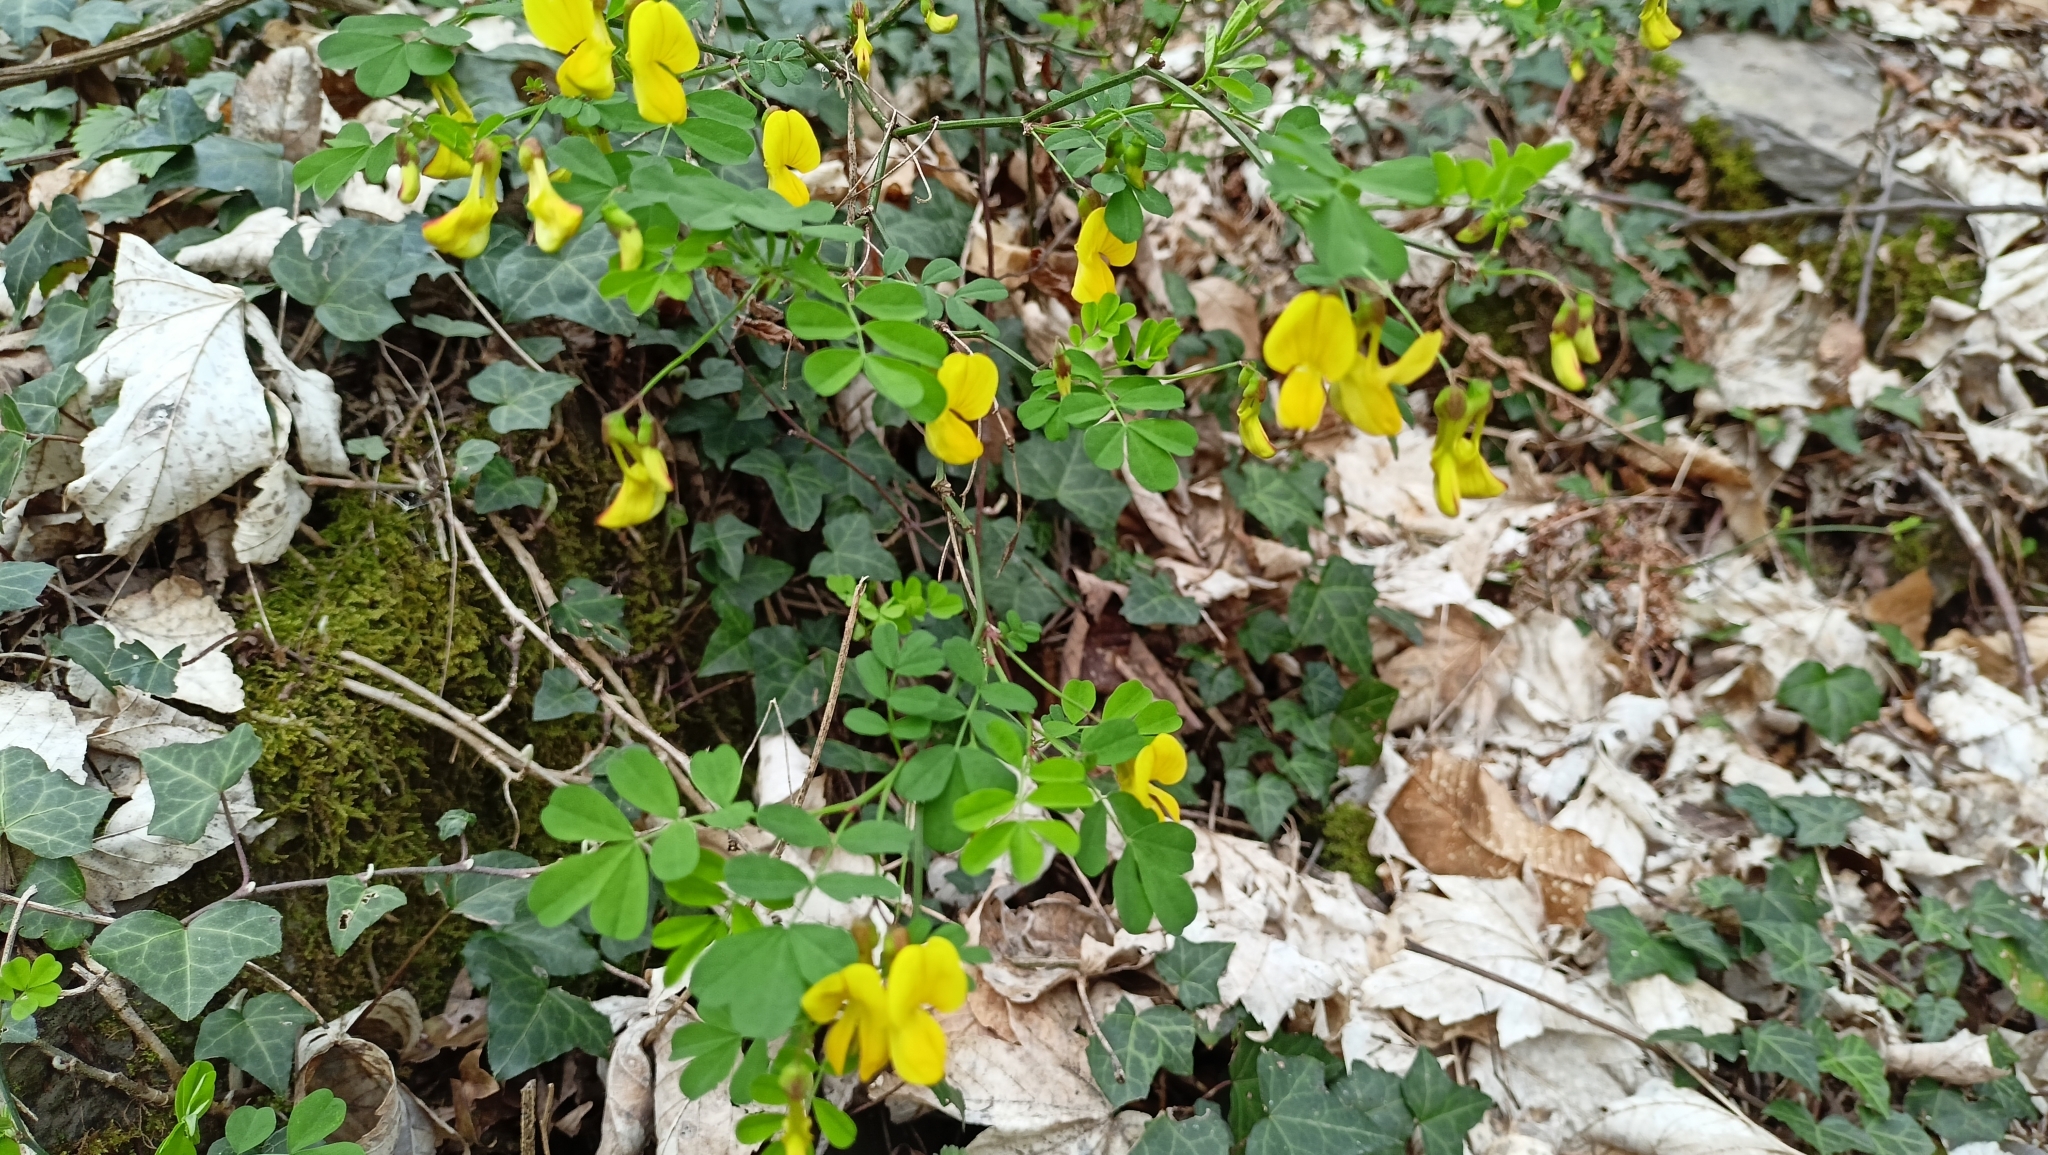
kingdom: Plantae
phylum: Tracheophyta
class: Magnoliopsida
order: Fabales
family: Fabaceae
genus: Hippocrepis
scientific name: Hippocrepis emerus
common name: Scorpion senna
